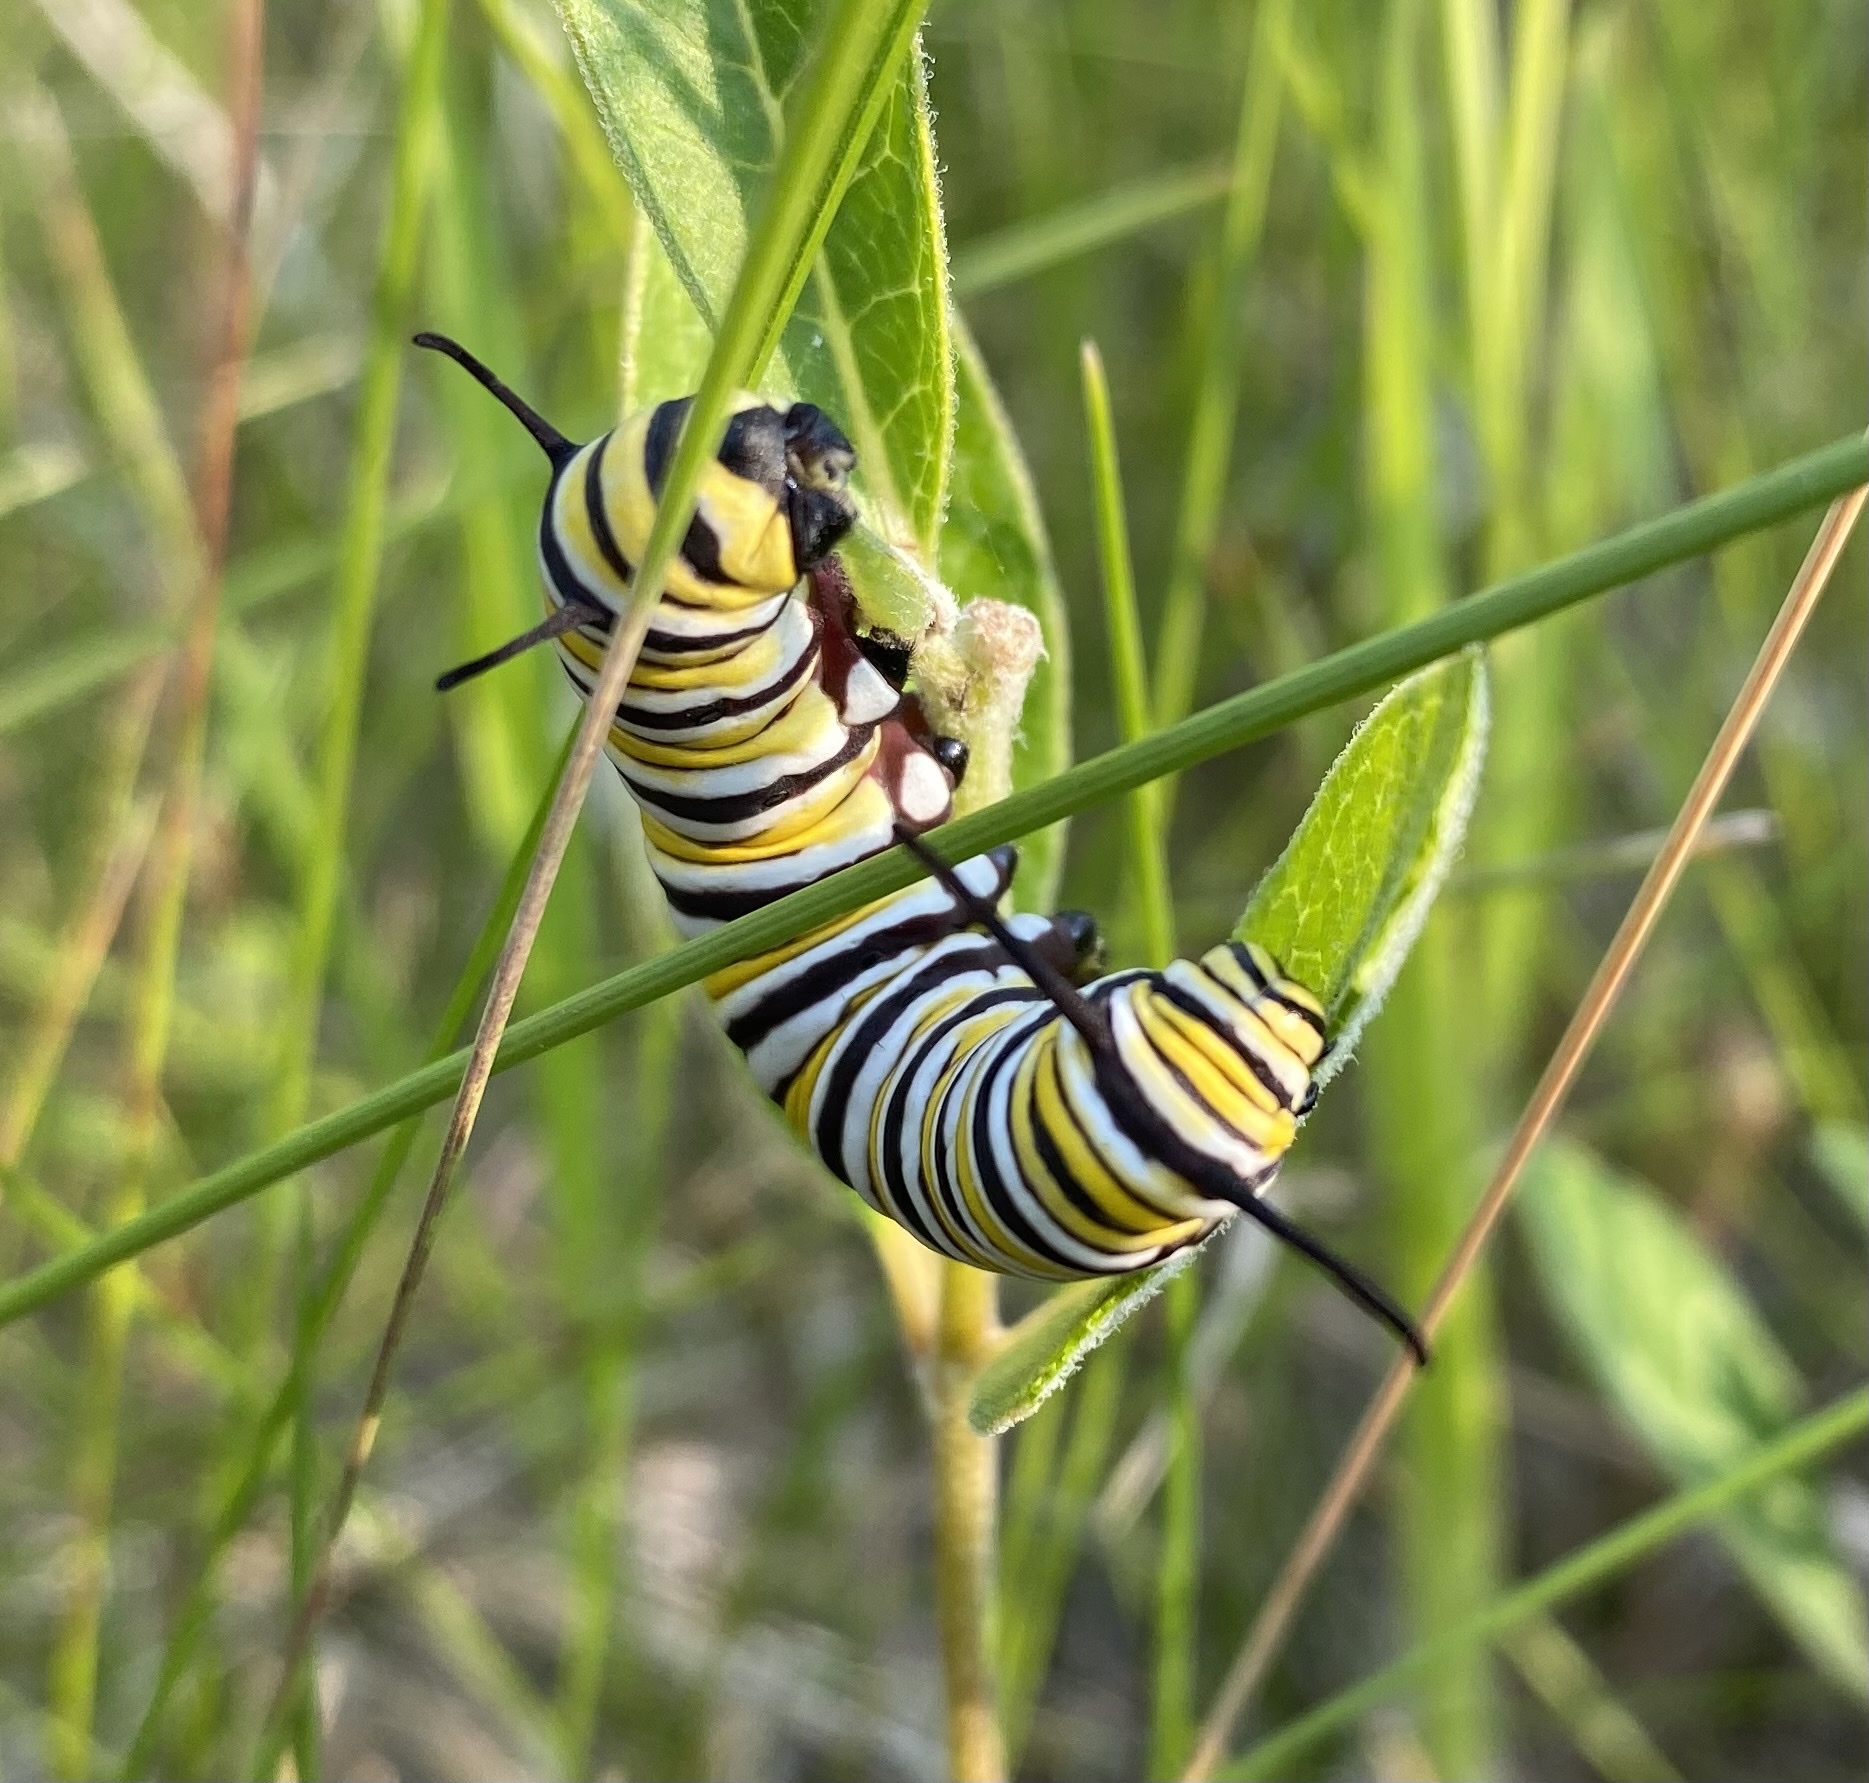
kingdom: Animalia
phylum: Arthropoda
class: Insecta
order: Lepidoptera
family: Nymphalidae
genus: Danaus
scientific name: Danaus plexippus
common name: Monarch
